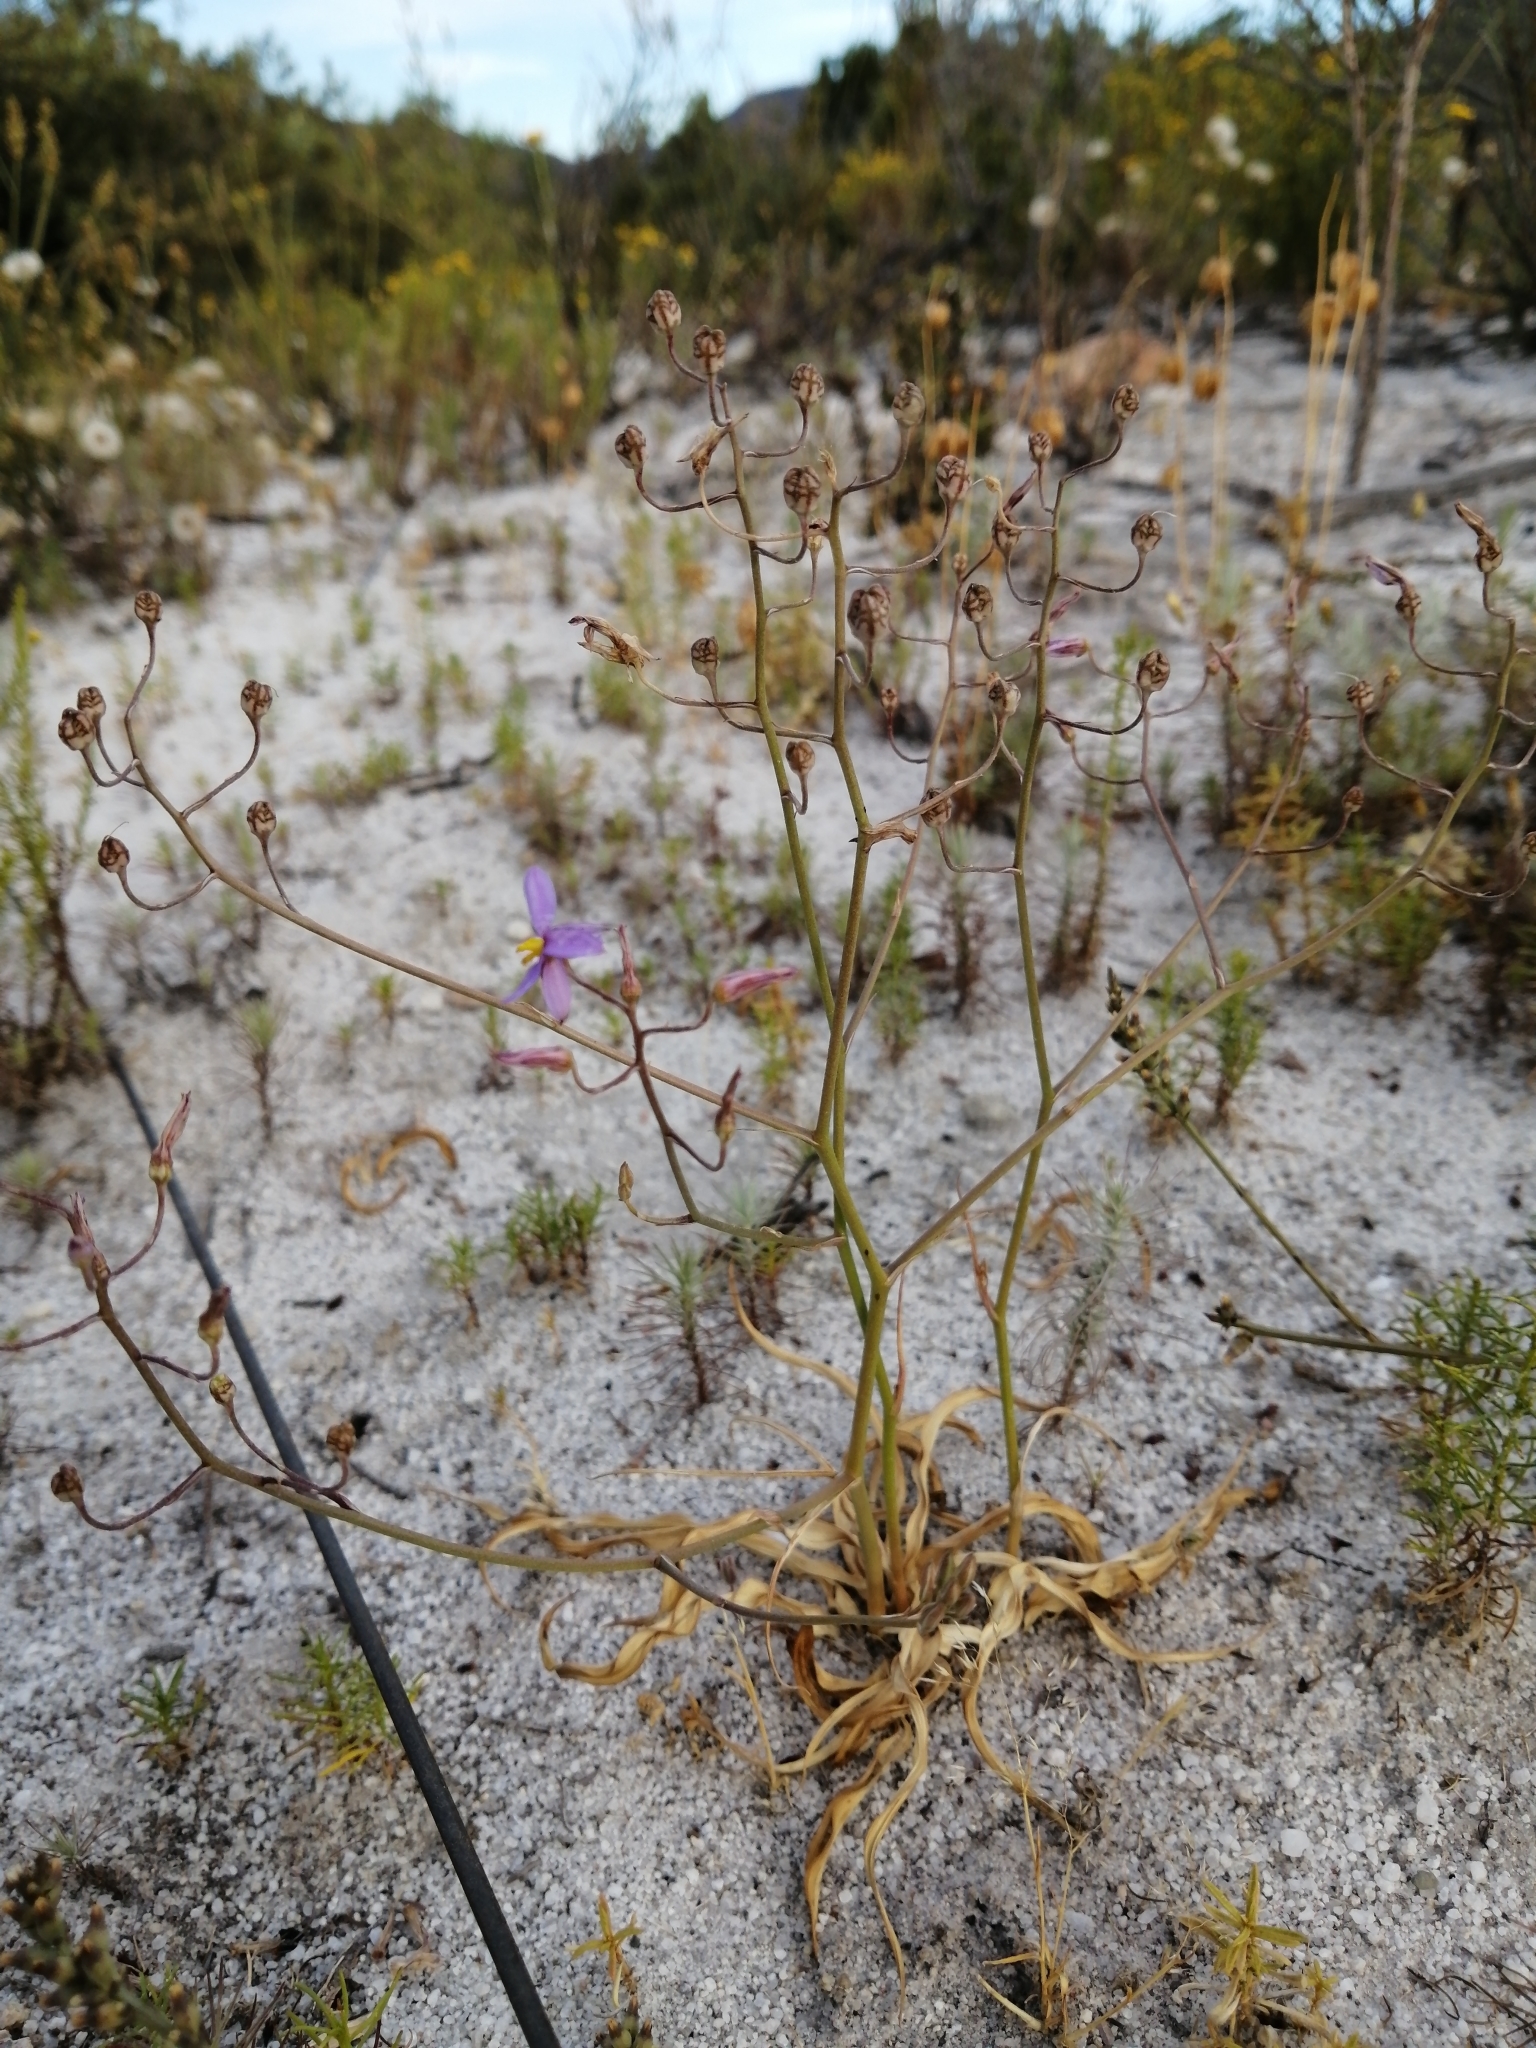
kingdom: Plantae
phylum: Tracheophyta
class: Liliopsida
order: Asparagales
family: Tecophilaeaceae
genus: Cyanella
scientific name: Cyanella hyacinthoides
